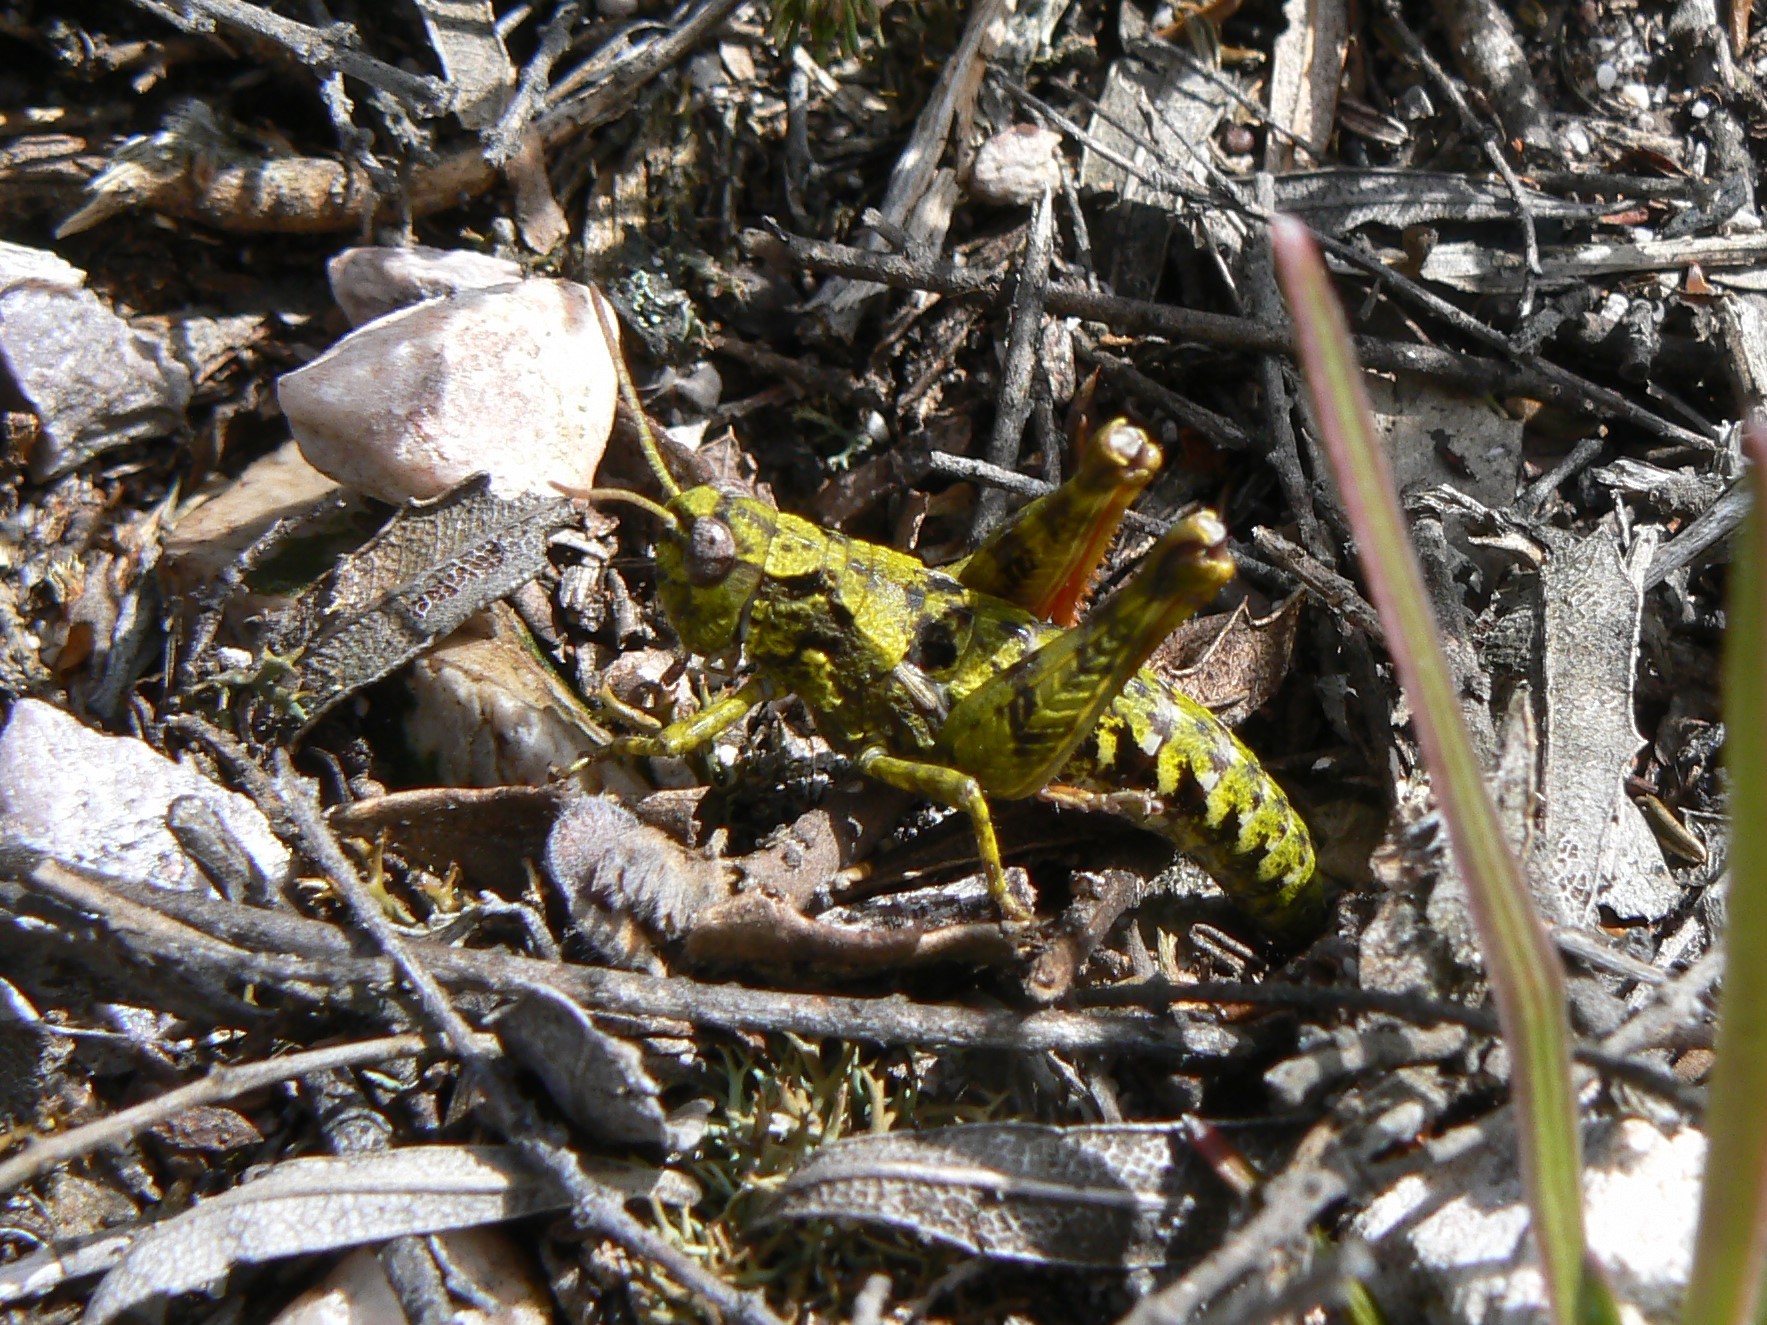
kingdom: Animalia
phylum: Arthropoda
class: Insecta
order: Orthoptera
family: Acrididae
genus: Tasmaniacris
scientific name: Tasmaniacris tasmaniensis
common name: Tasmanian grasshopper
